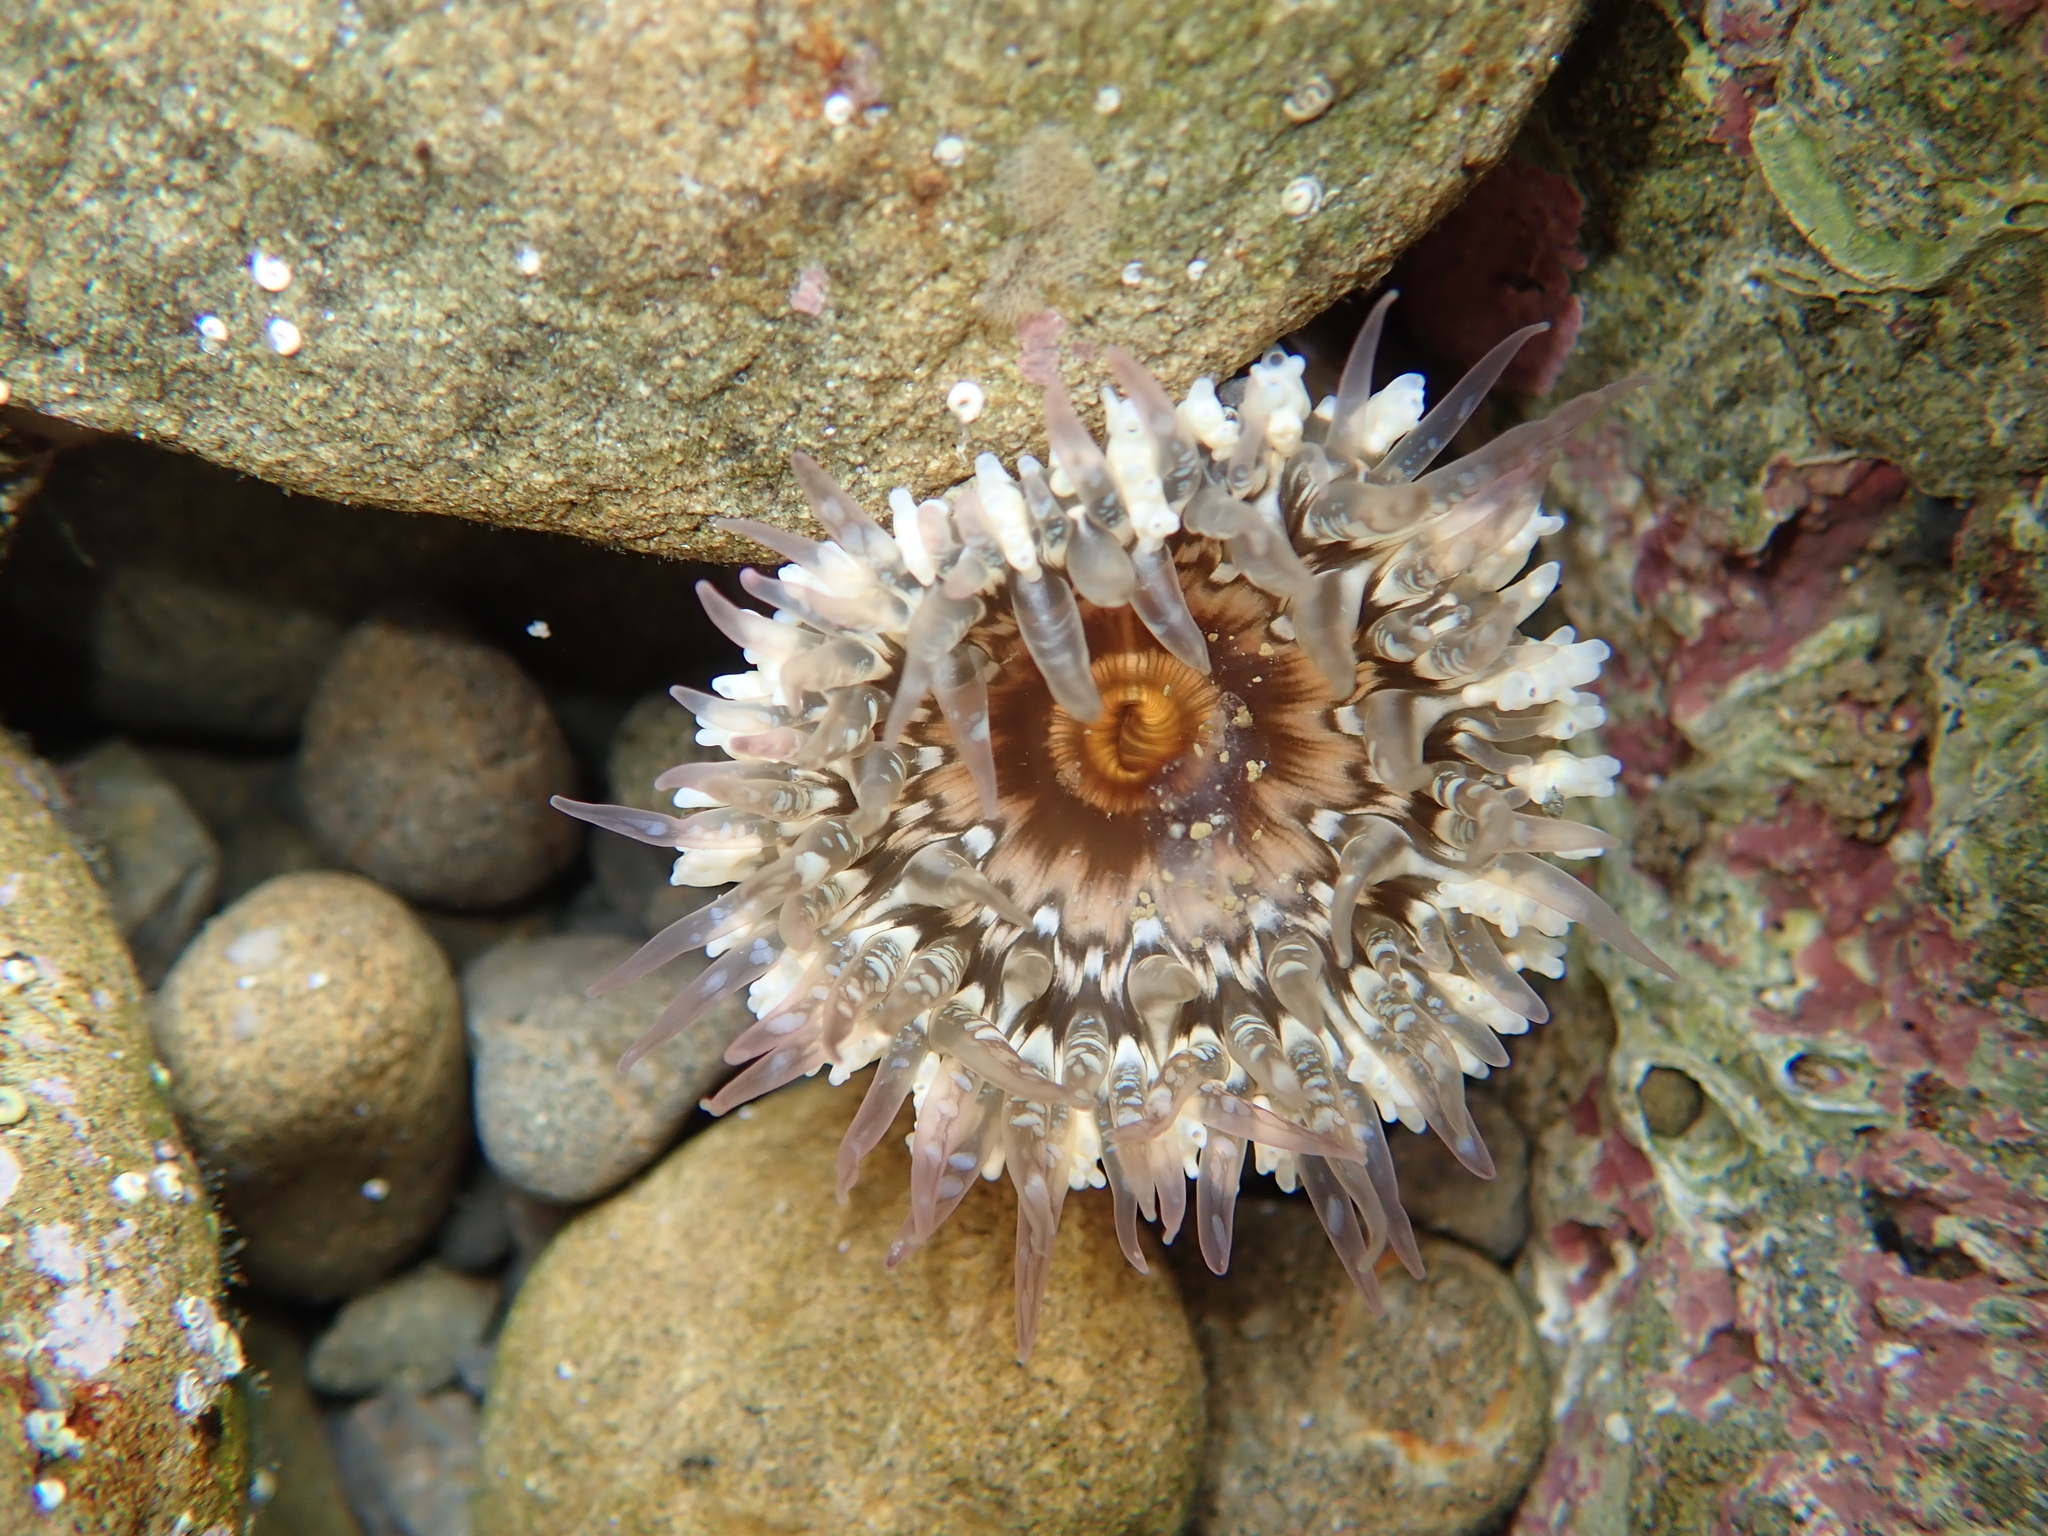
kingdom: Animalia
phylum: Cnidaria
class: Anthozoa
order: Actiniaria
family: Actiniidae
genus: Oulactis
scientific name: Oulactis muscosa
